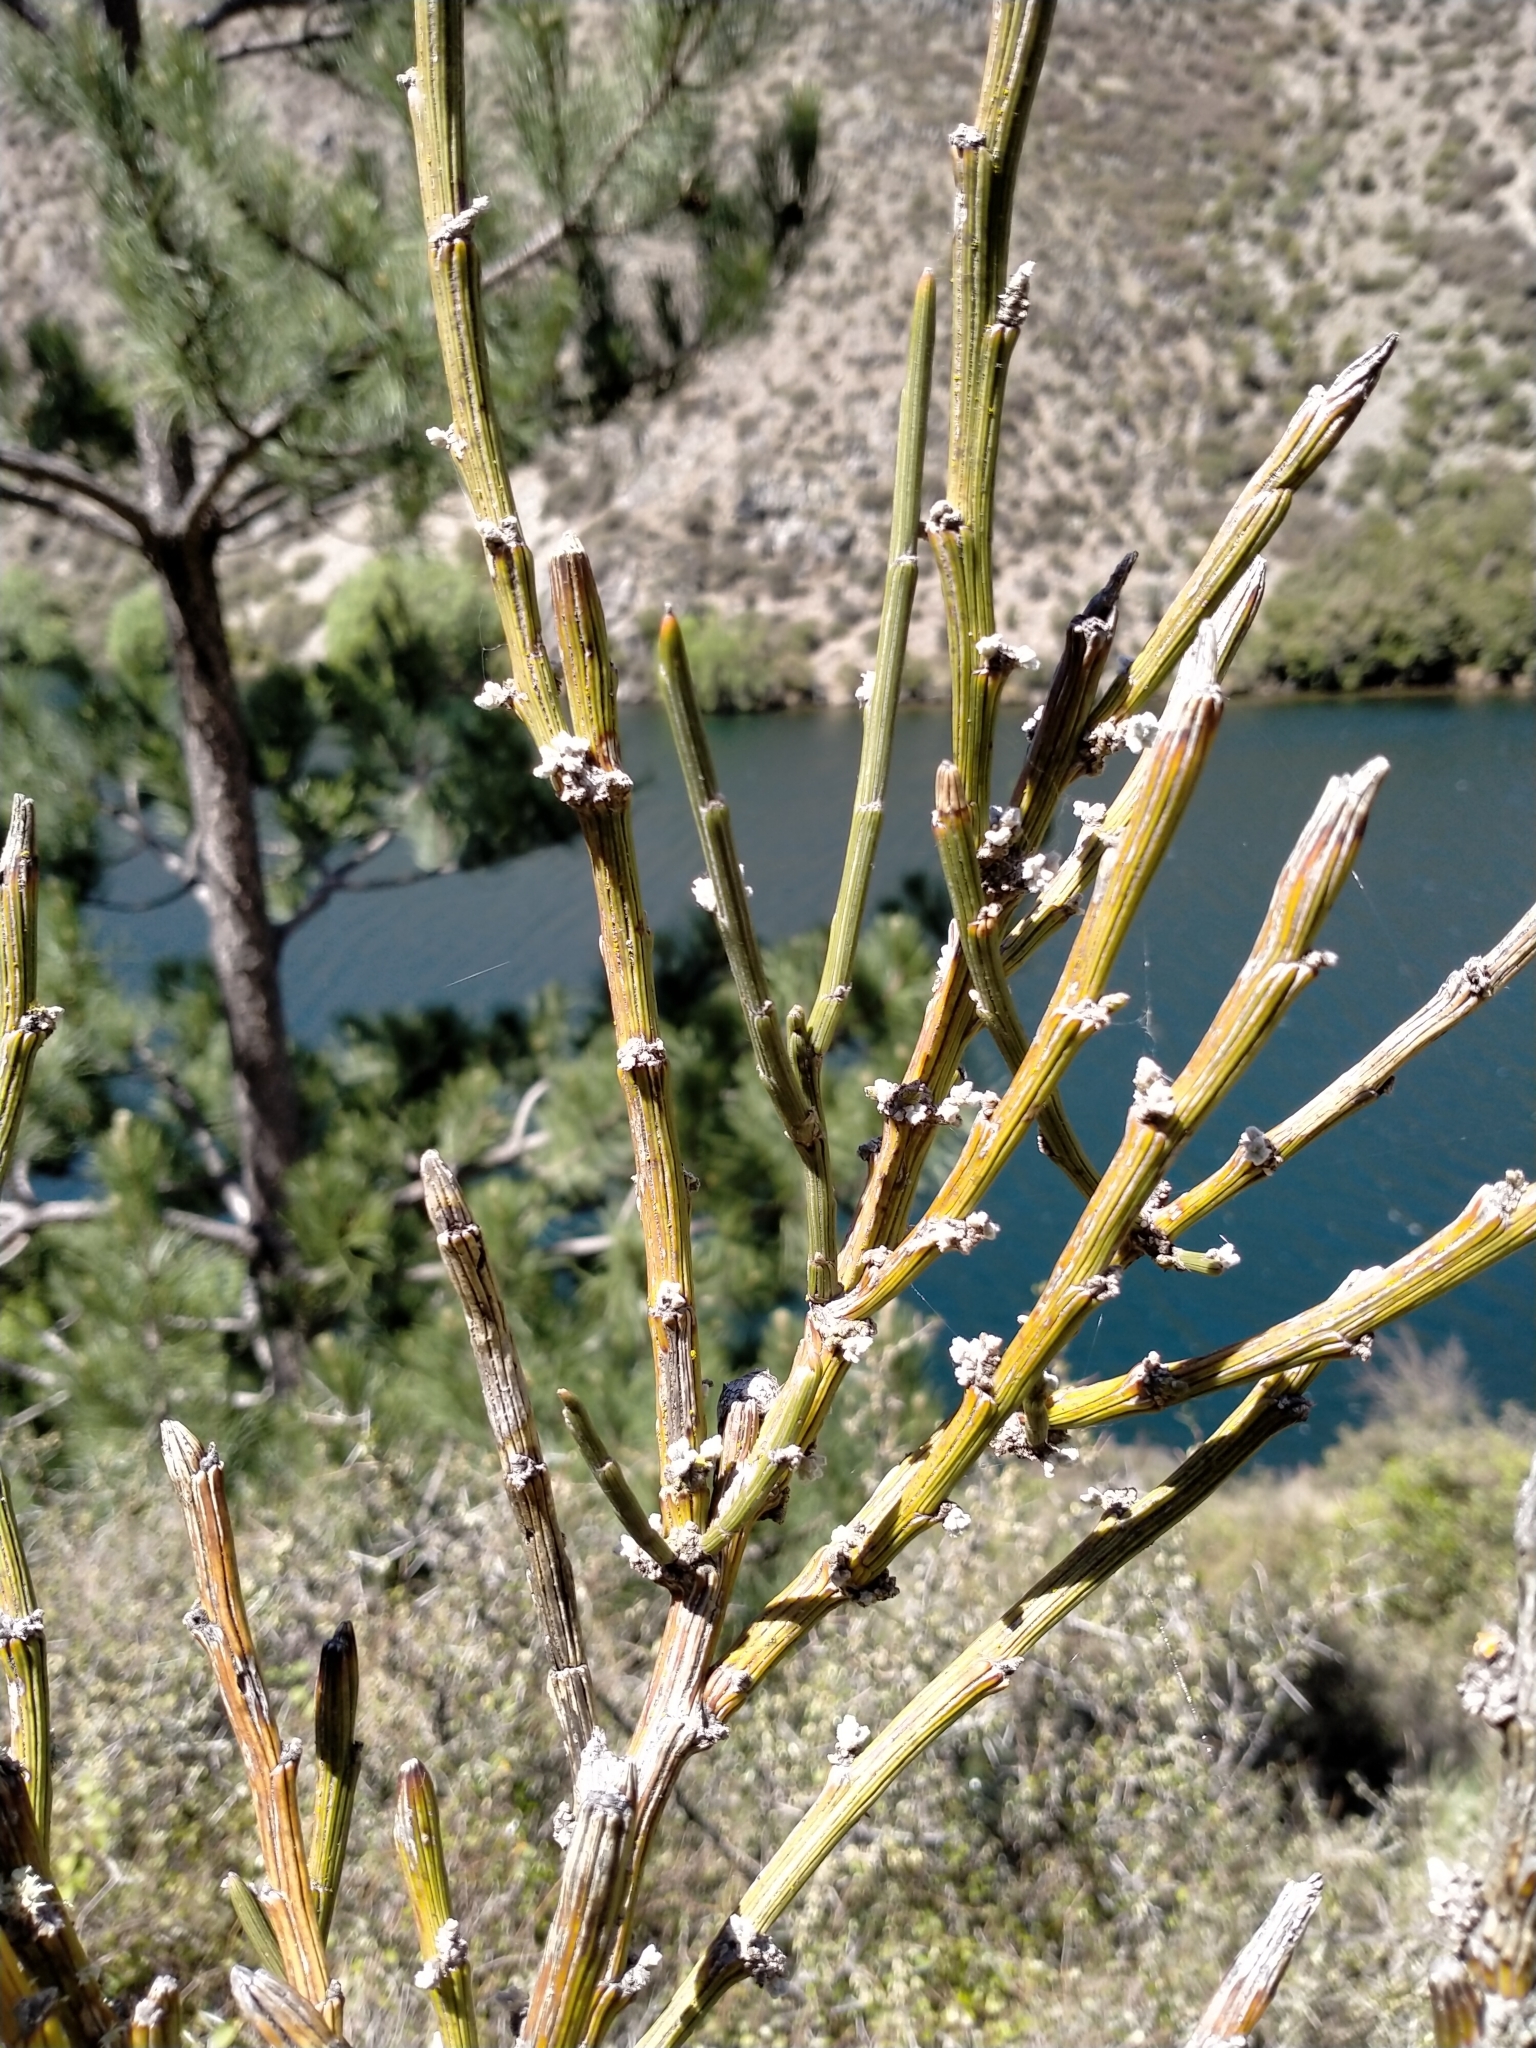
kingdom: Plantae
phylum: Tracheophyta
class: Magnoliopsida
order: Fabales
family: Fabaceae
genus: Carmichaelia
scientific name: Carmichaelia crassicaulis
